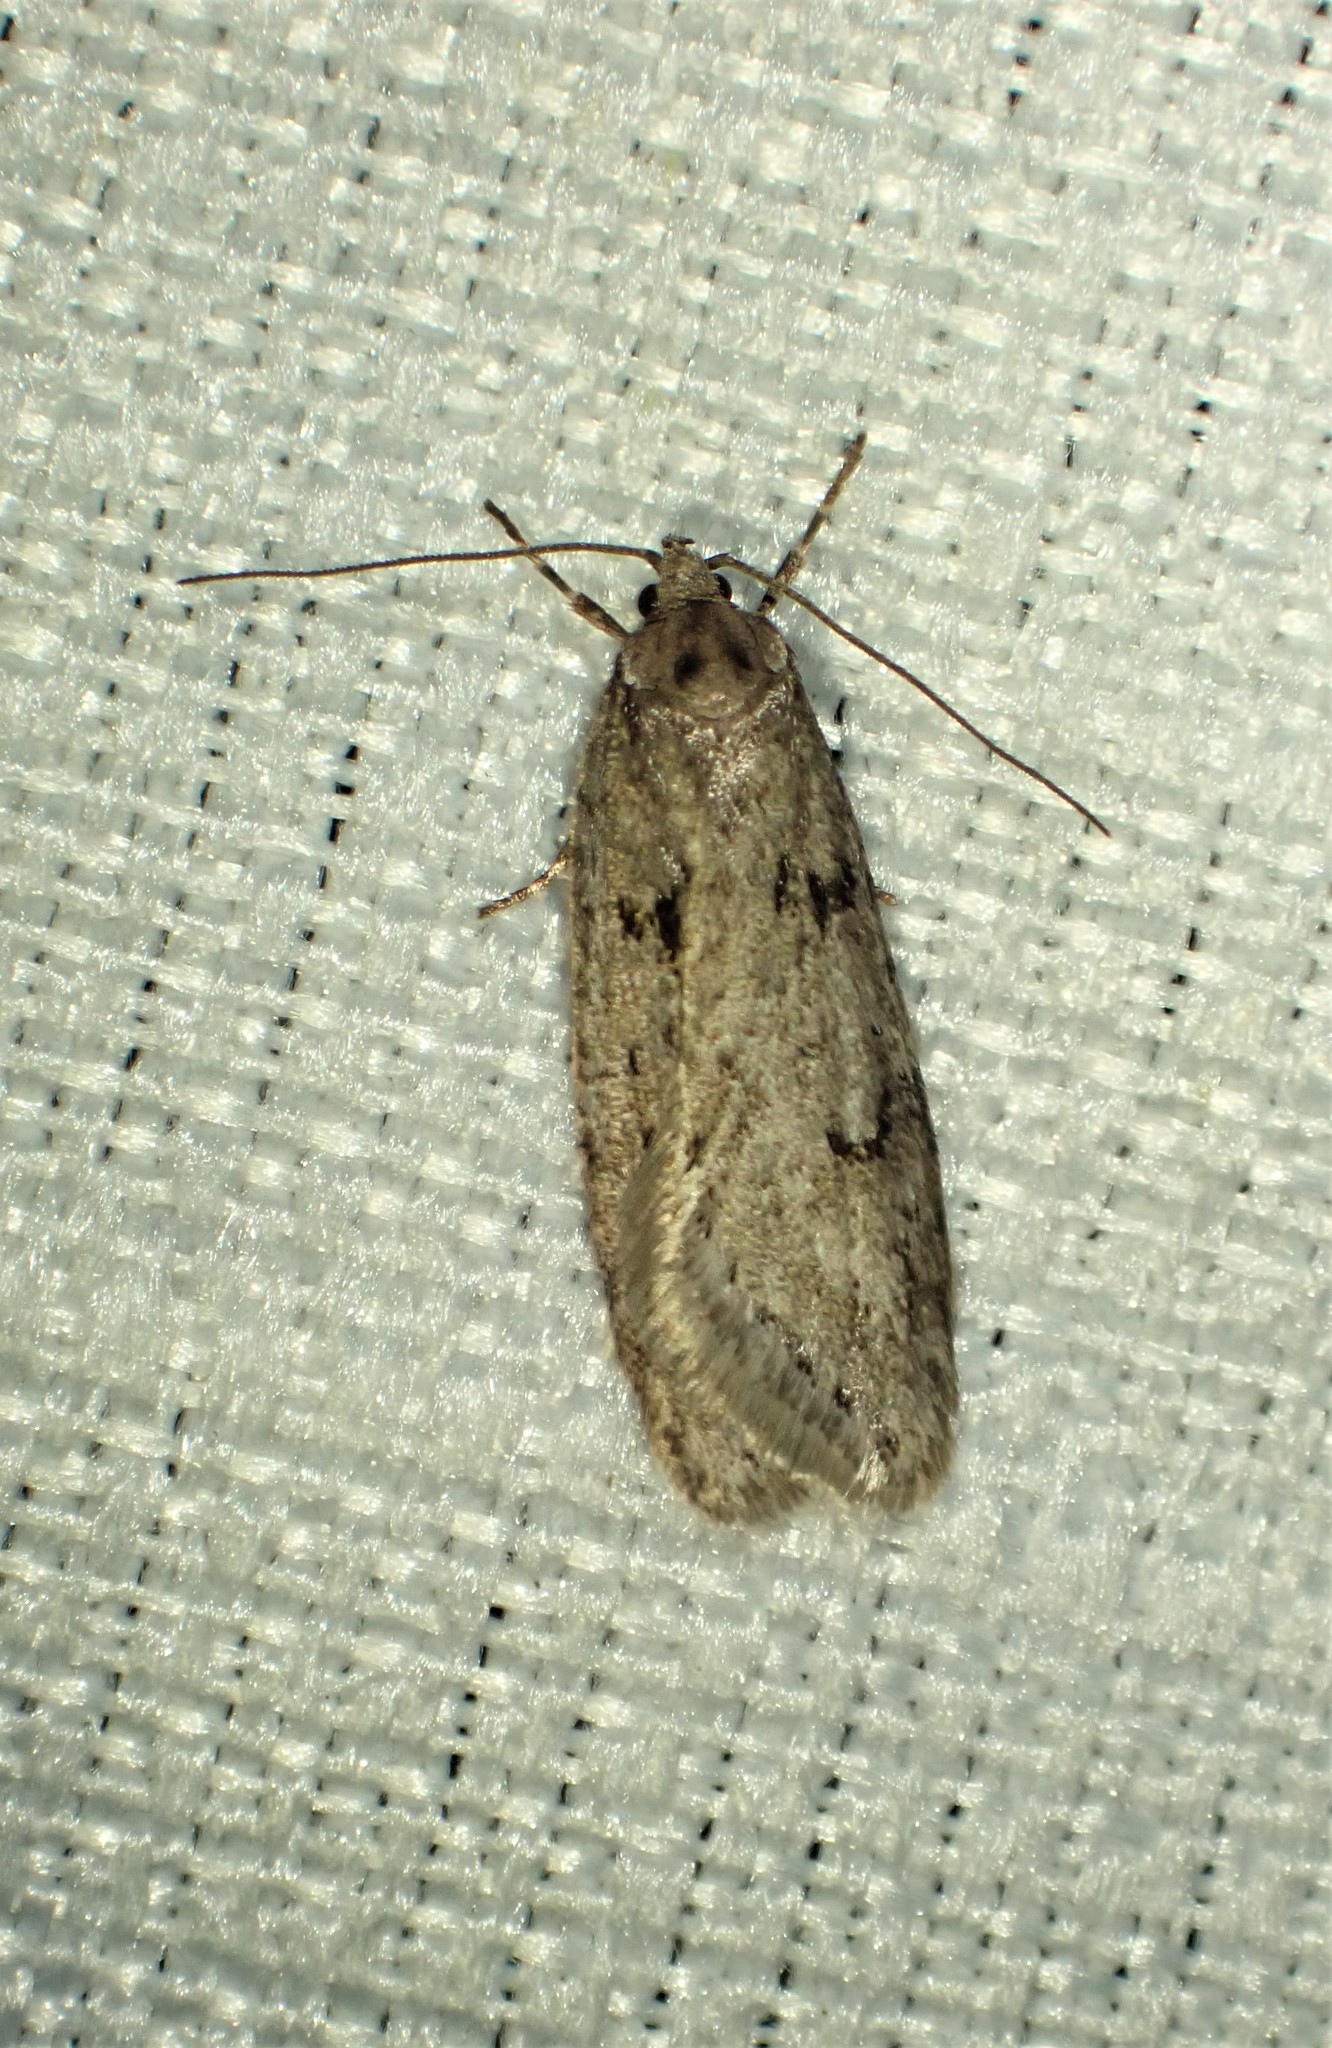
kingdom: Animalia
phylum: Arthropoda
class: Insecta
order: Lepidoptera
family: Depressariidae
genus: Semioscopis
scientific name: Semioscopis megamicrella
